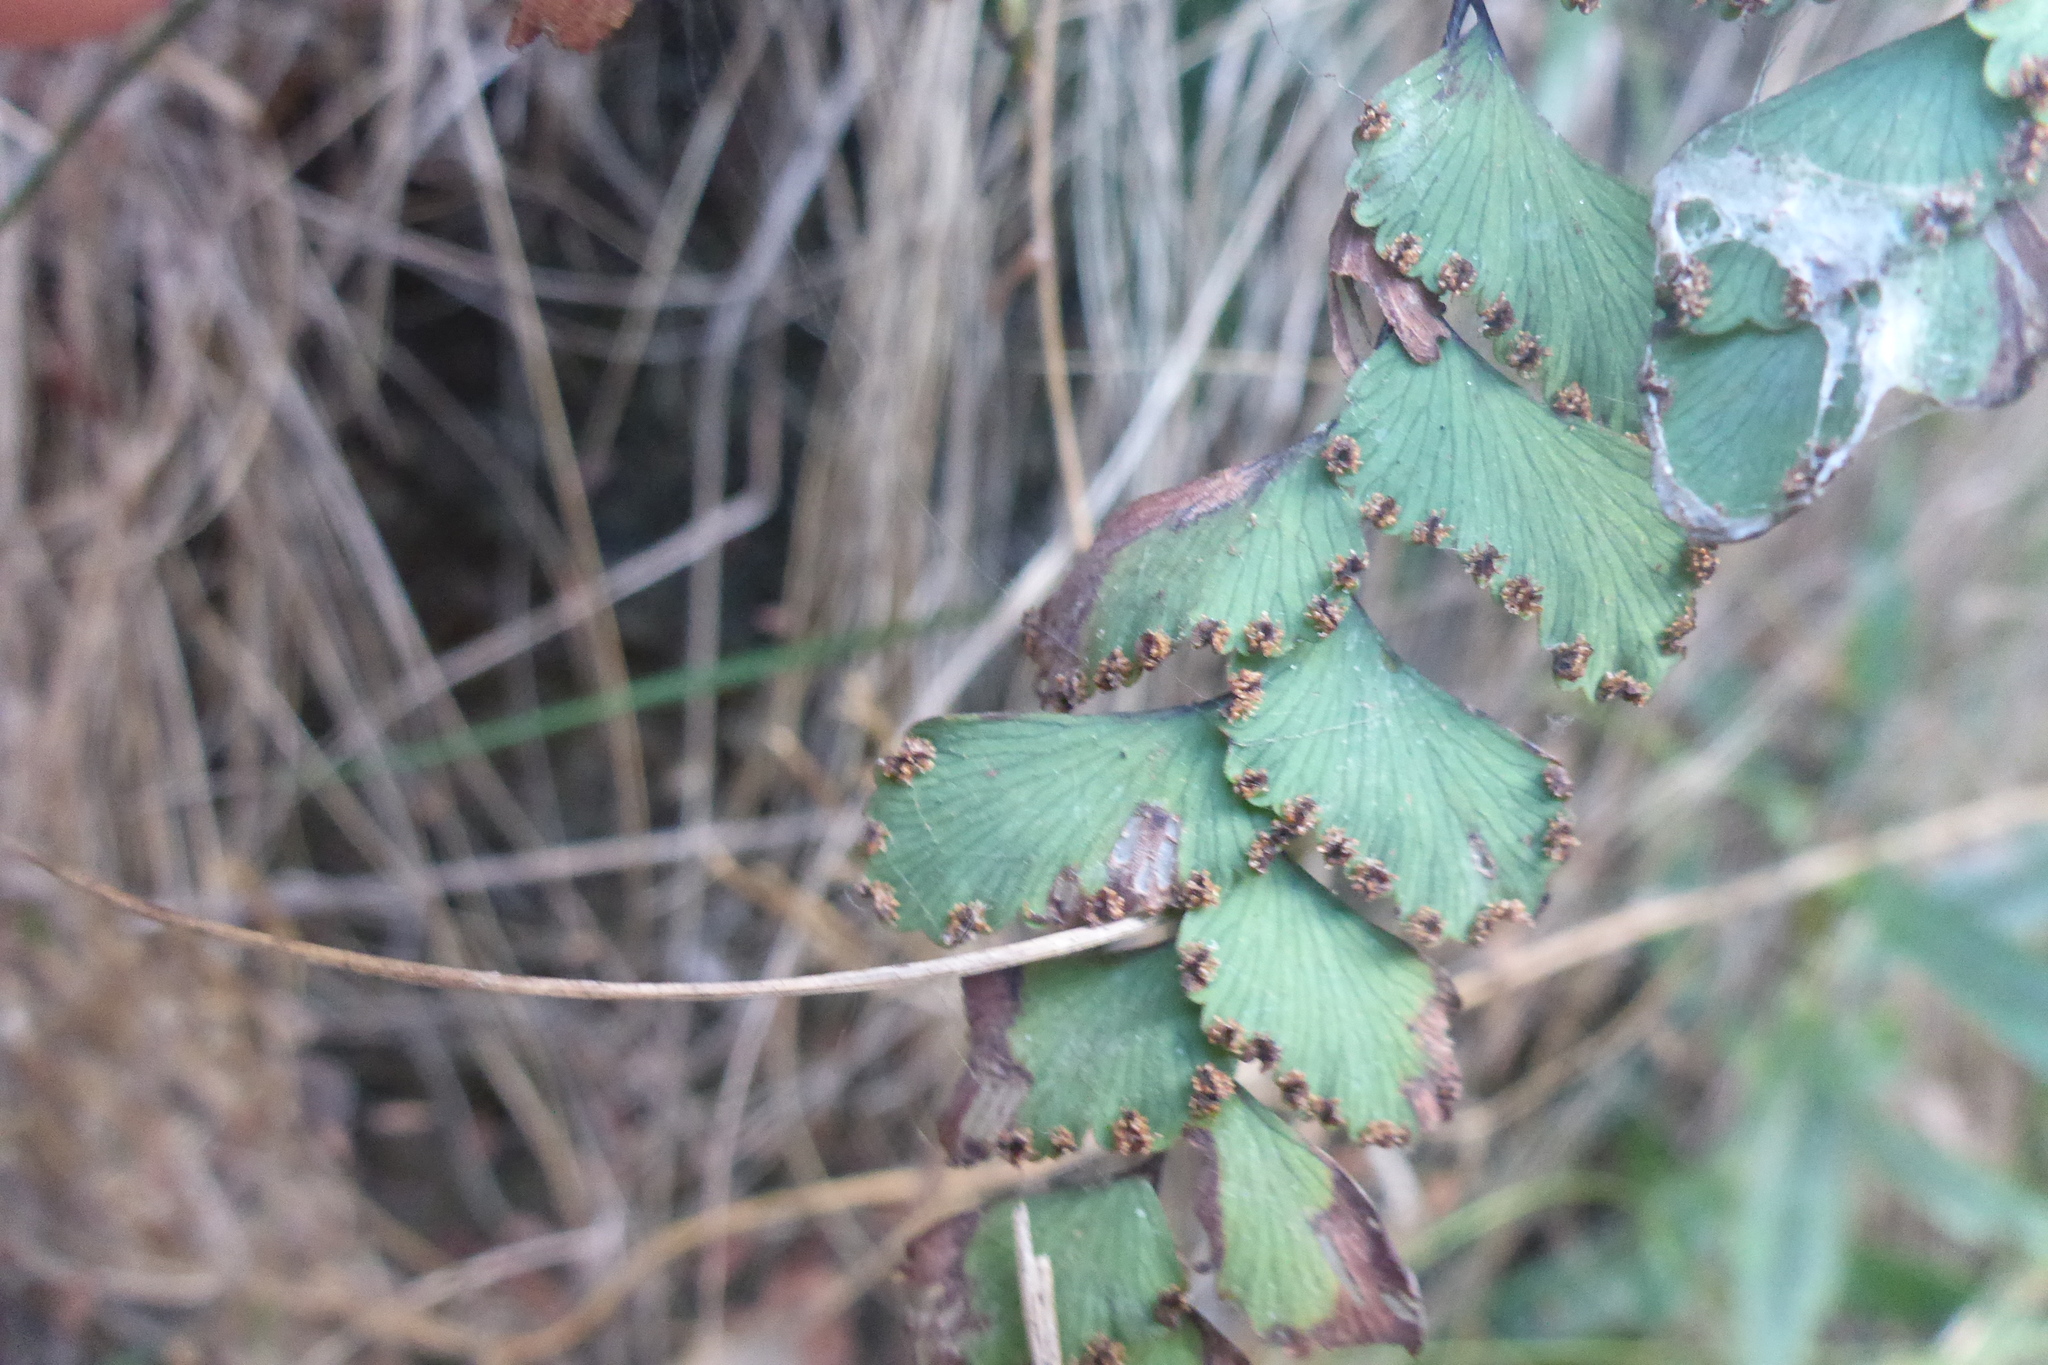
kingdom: Plantae
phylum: Tracheophyta
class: Polypodiopsida
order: Polypodiales
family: Pteridaceae
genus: Adiantum
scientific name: Adiantum cunninghamii
